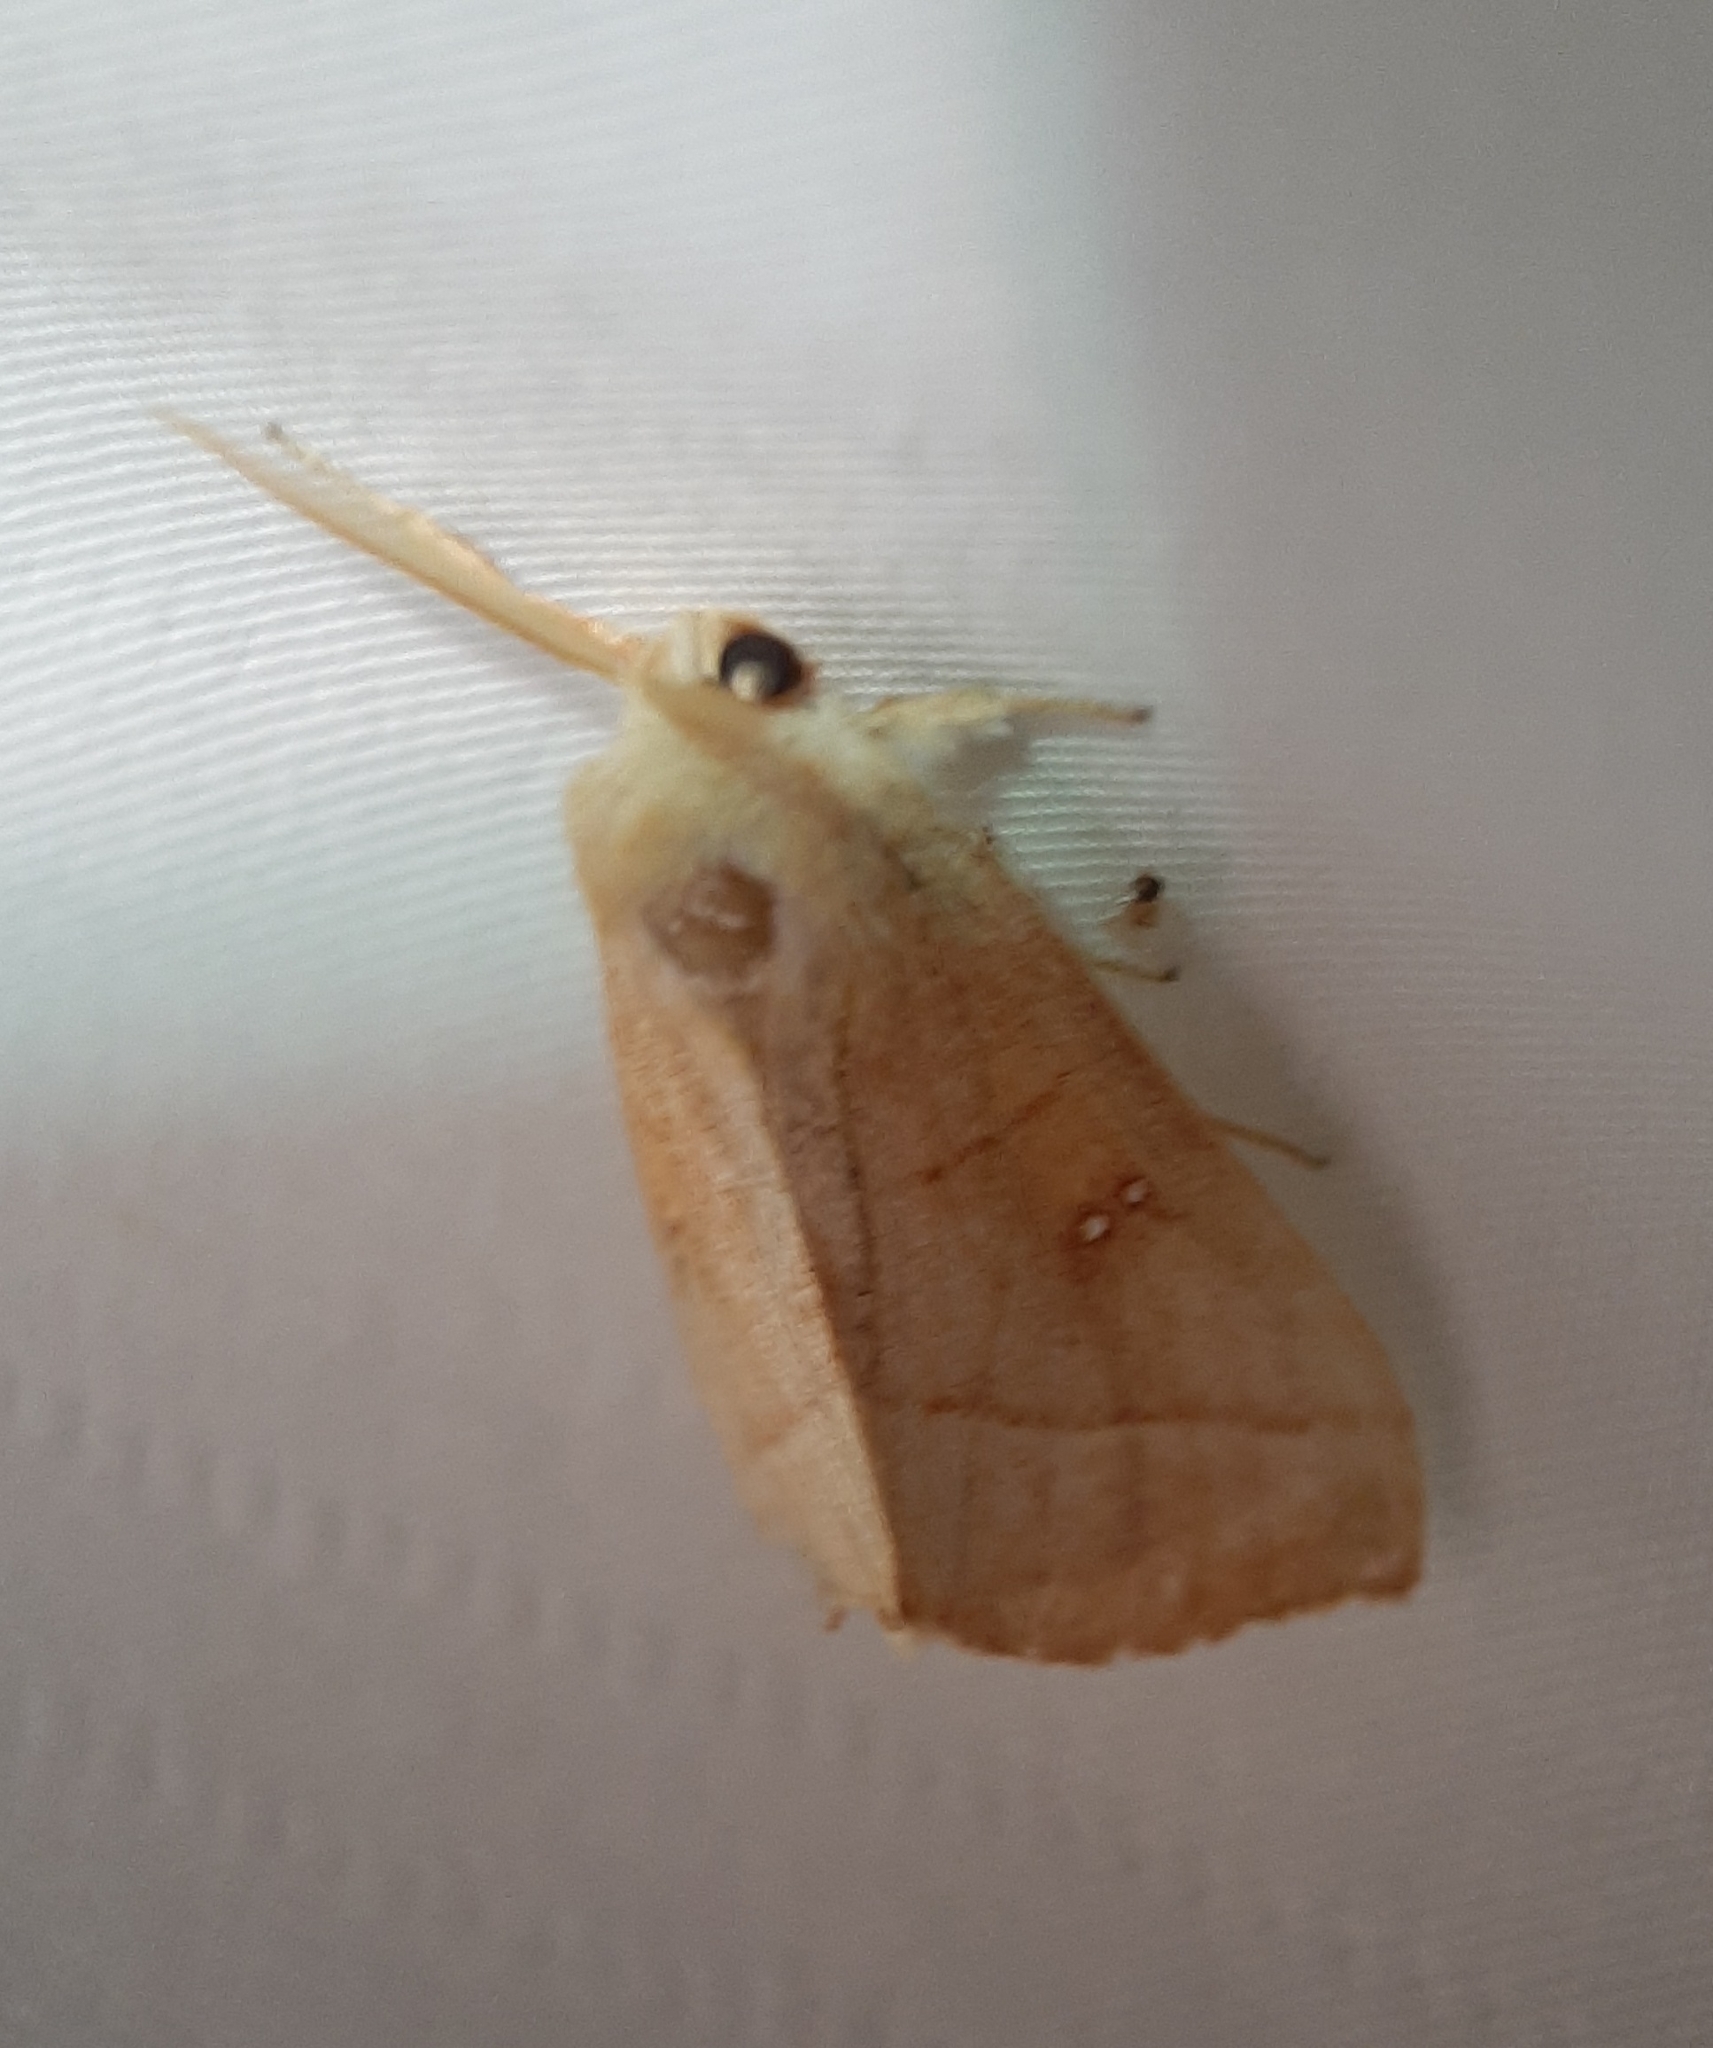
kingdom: Animalia
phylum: Arthropoda
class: Insecta
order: Lepidoptera
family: Notodontidae
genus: Nadata
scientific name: Nadata gibbosa
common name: White-dotted prominent
